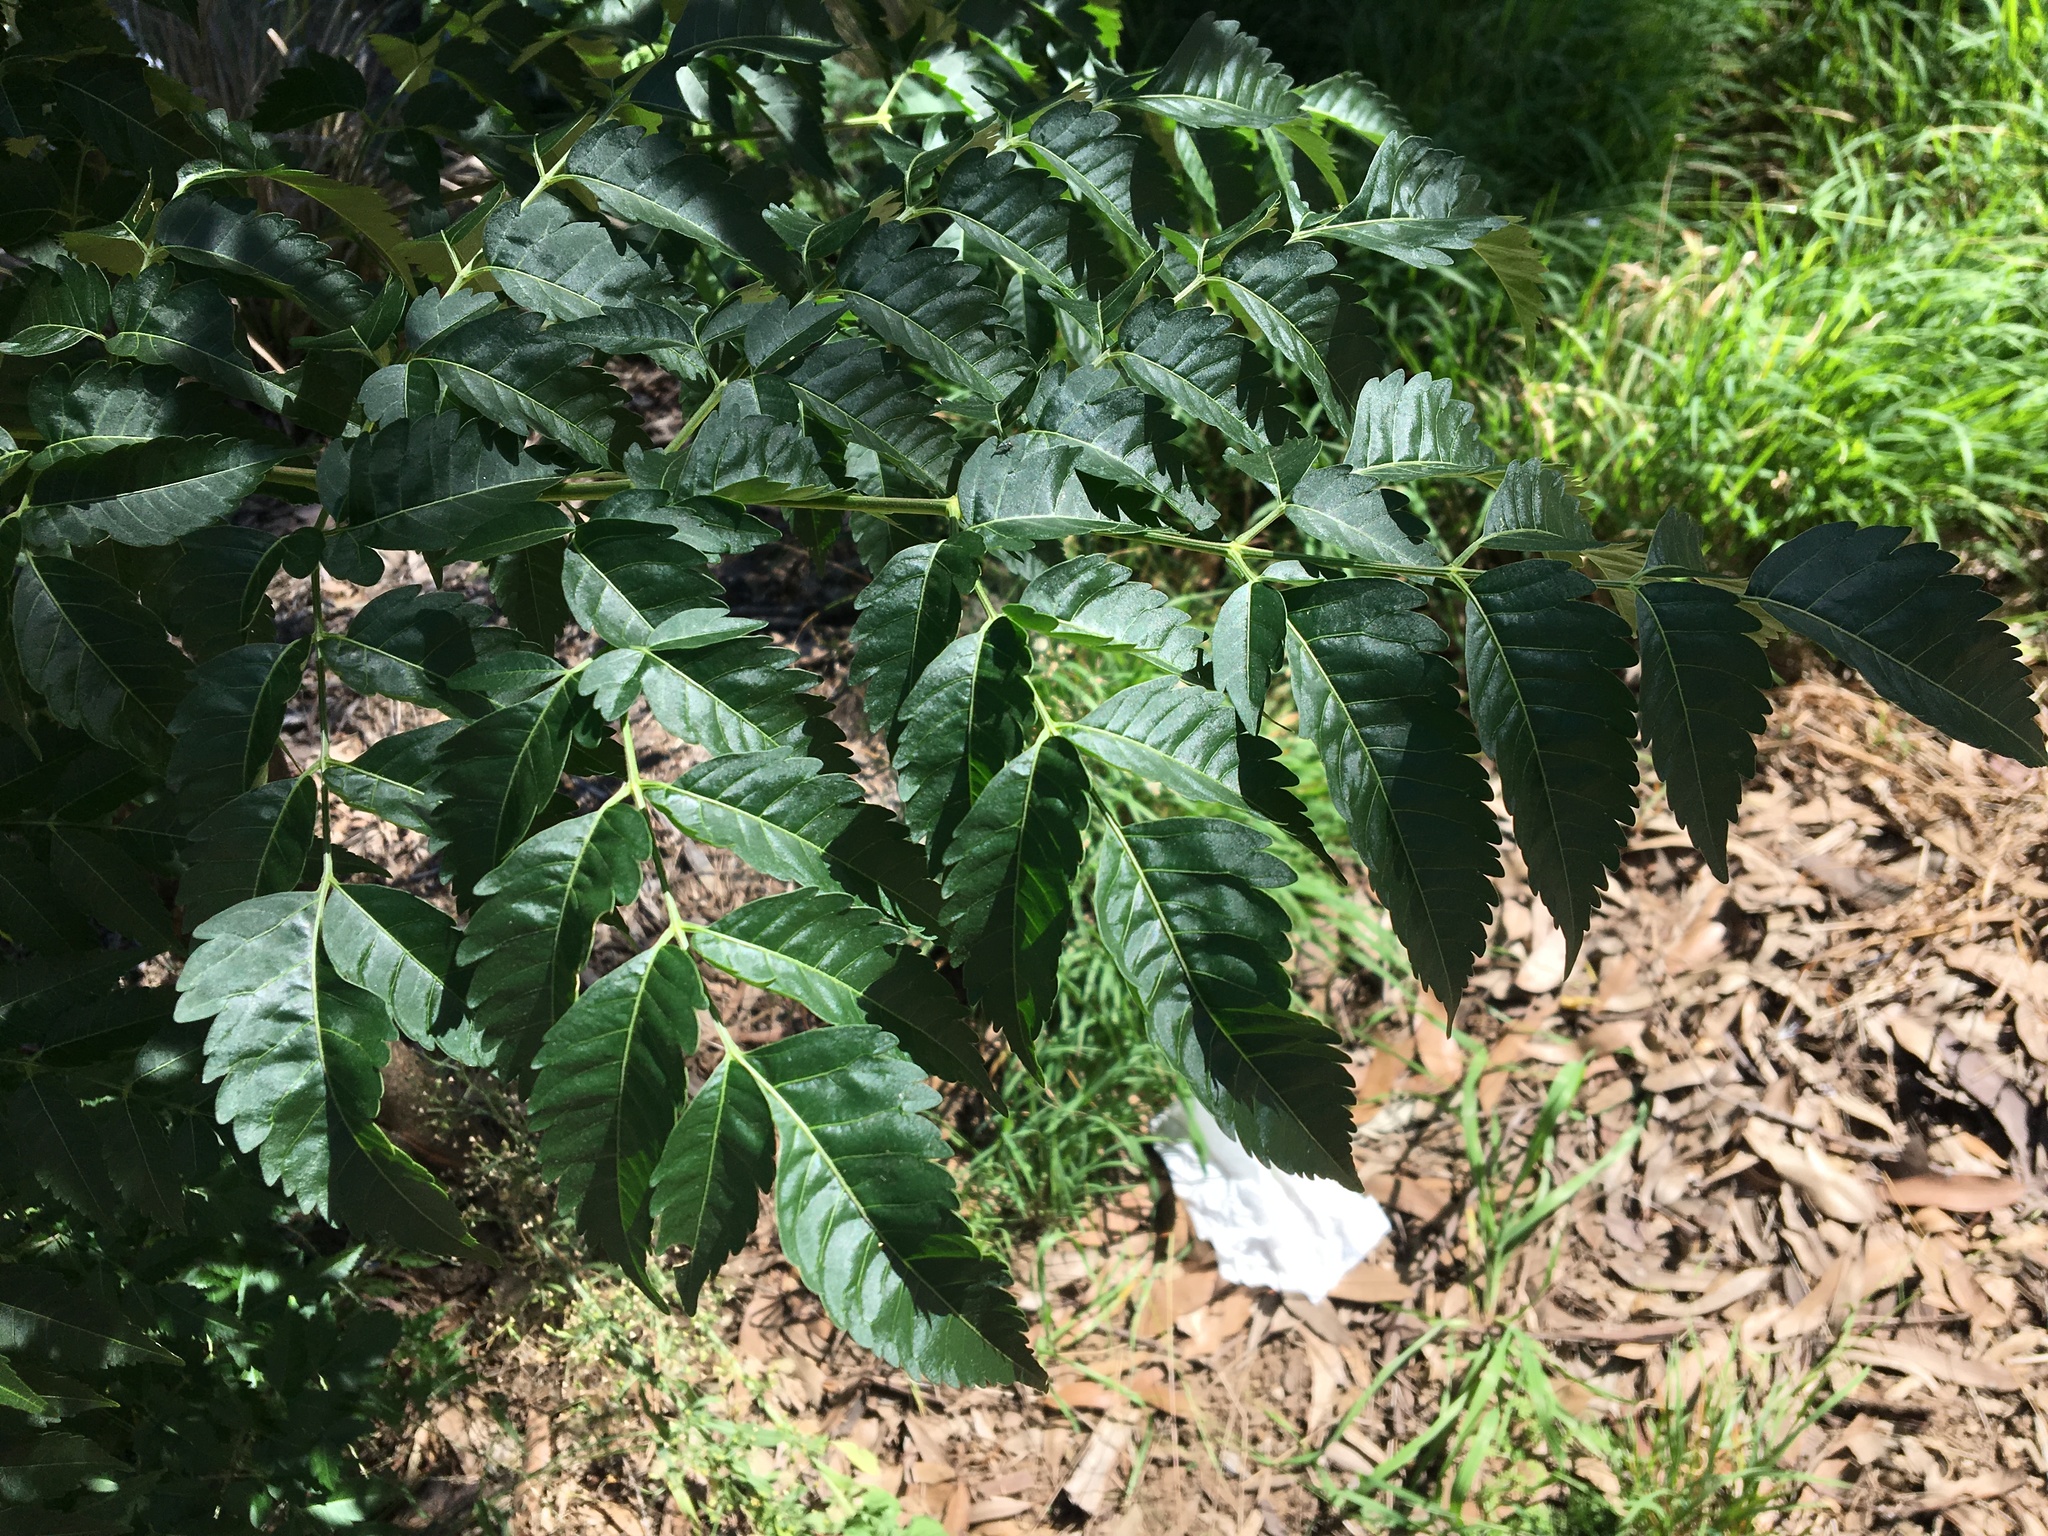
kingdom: Plantae
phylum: Tracheophyta
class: Magnoliopsida
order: Sapindales
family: Meliaceae
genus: Melia
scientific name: Melia azedarach
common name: Chinaberrytree
